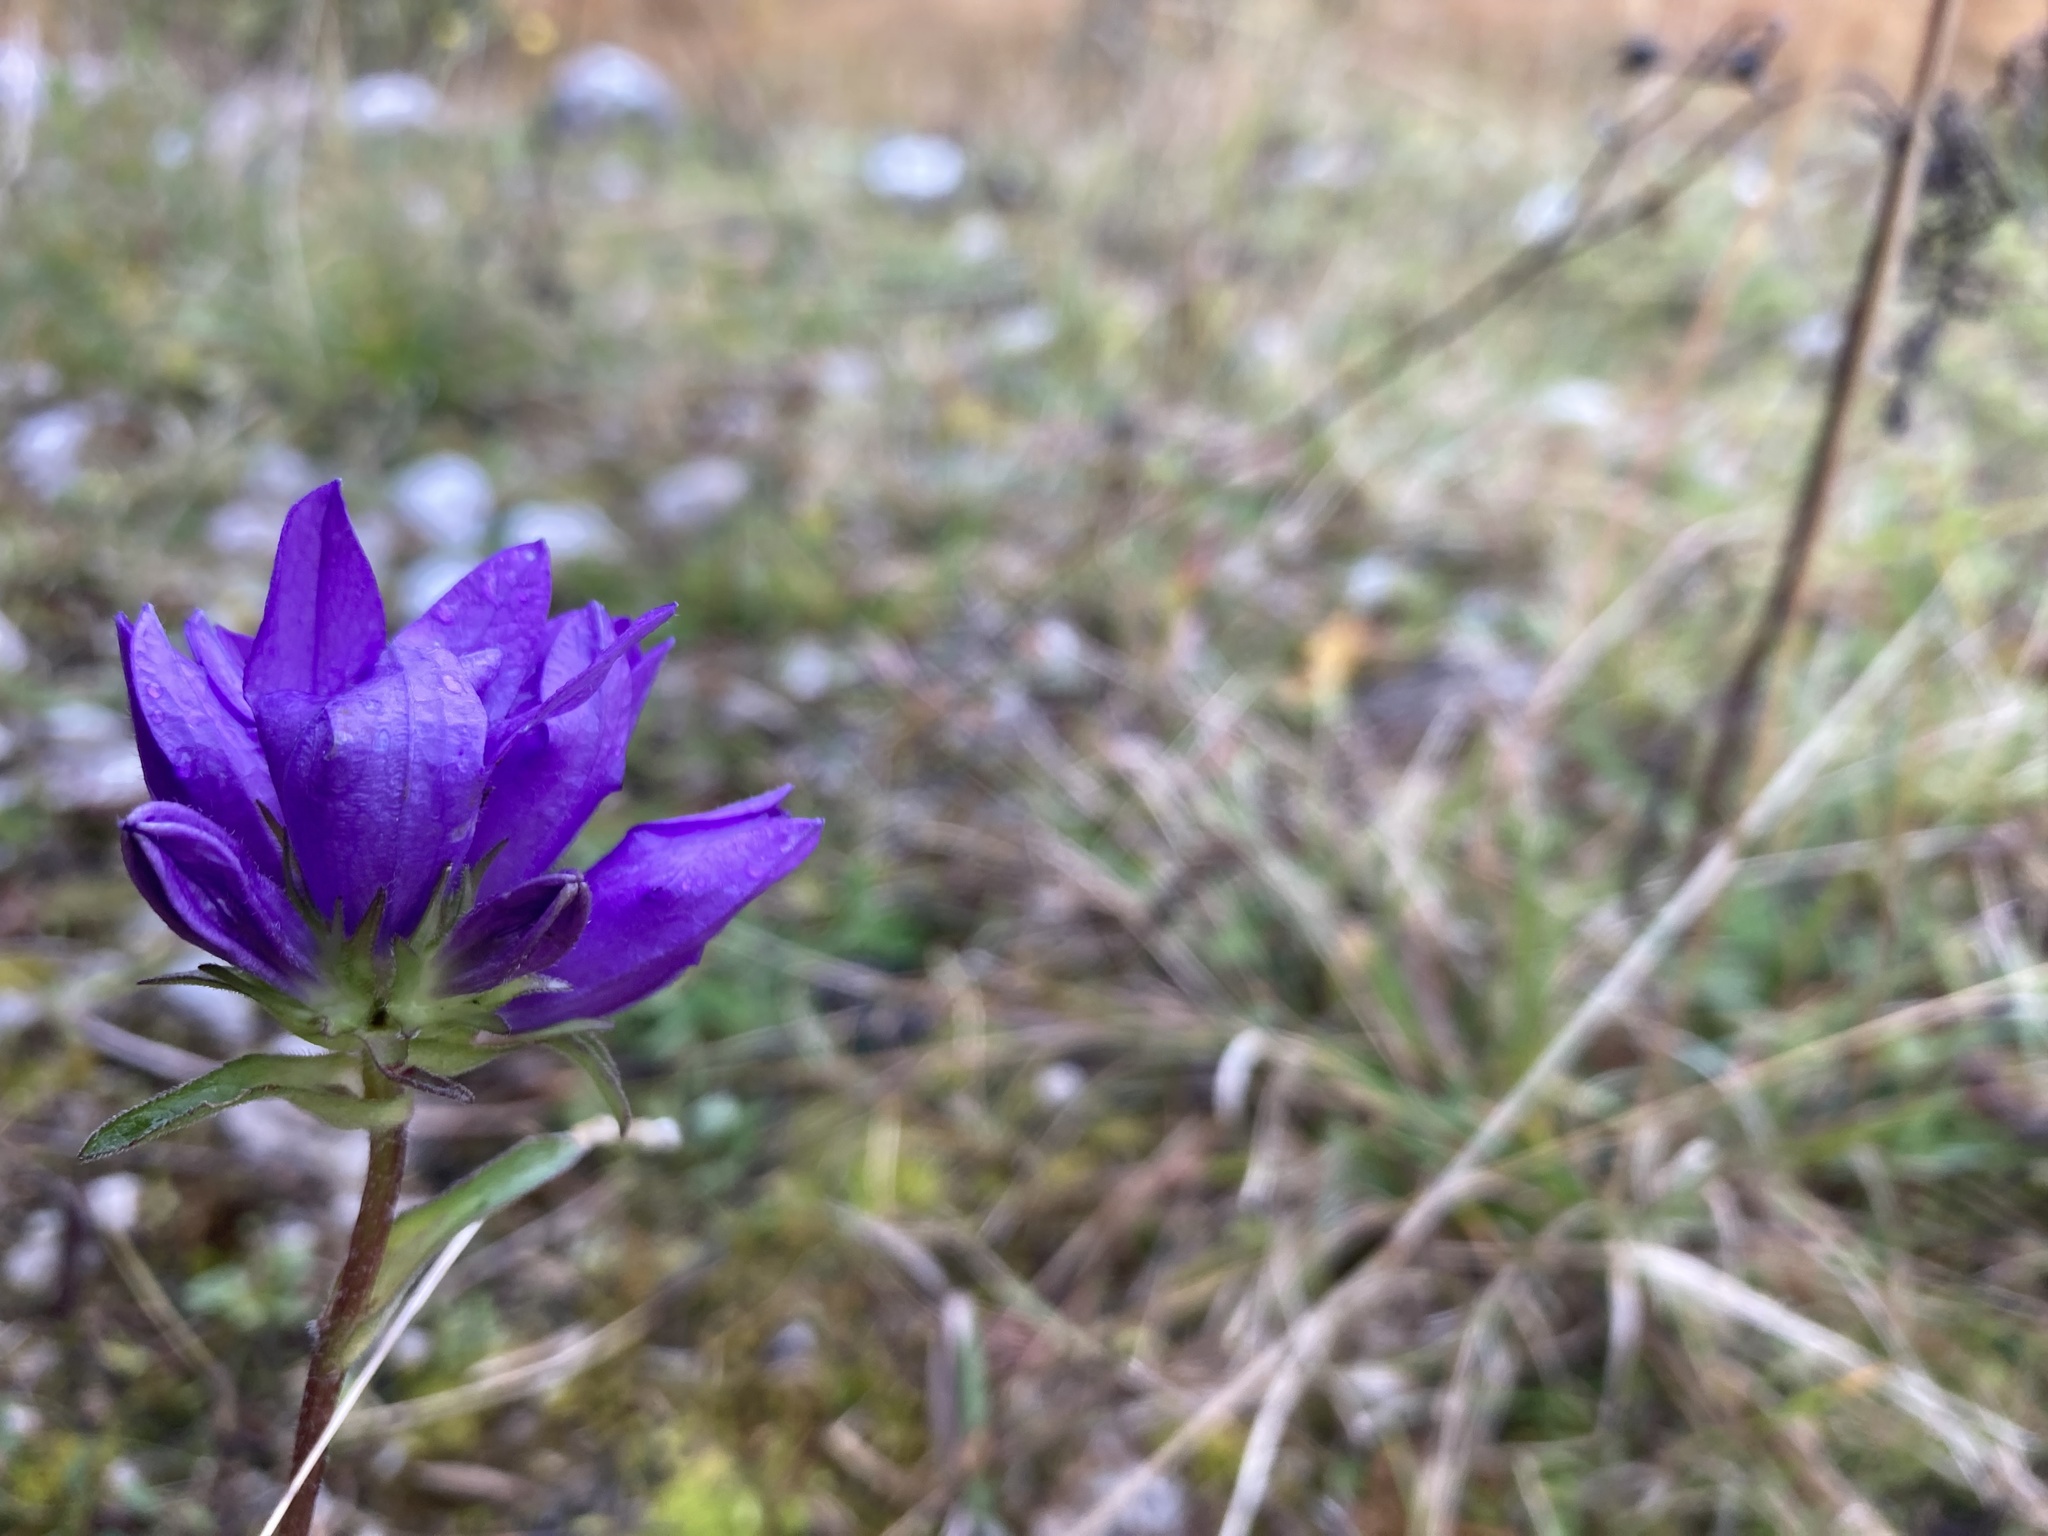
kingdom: Plantae
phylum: Tracheophyta
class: Magnoliopsida
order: Asterales
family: Campanulaceae
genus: Campanula
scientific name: Campanula glomerata
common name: Clustered bellflower
